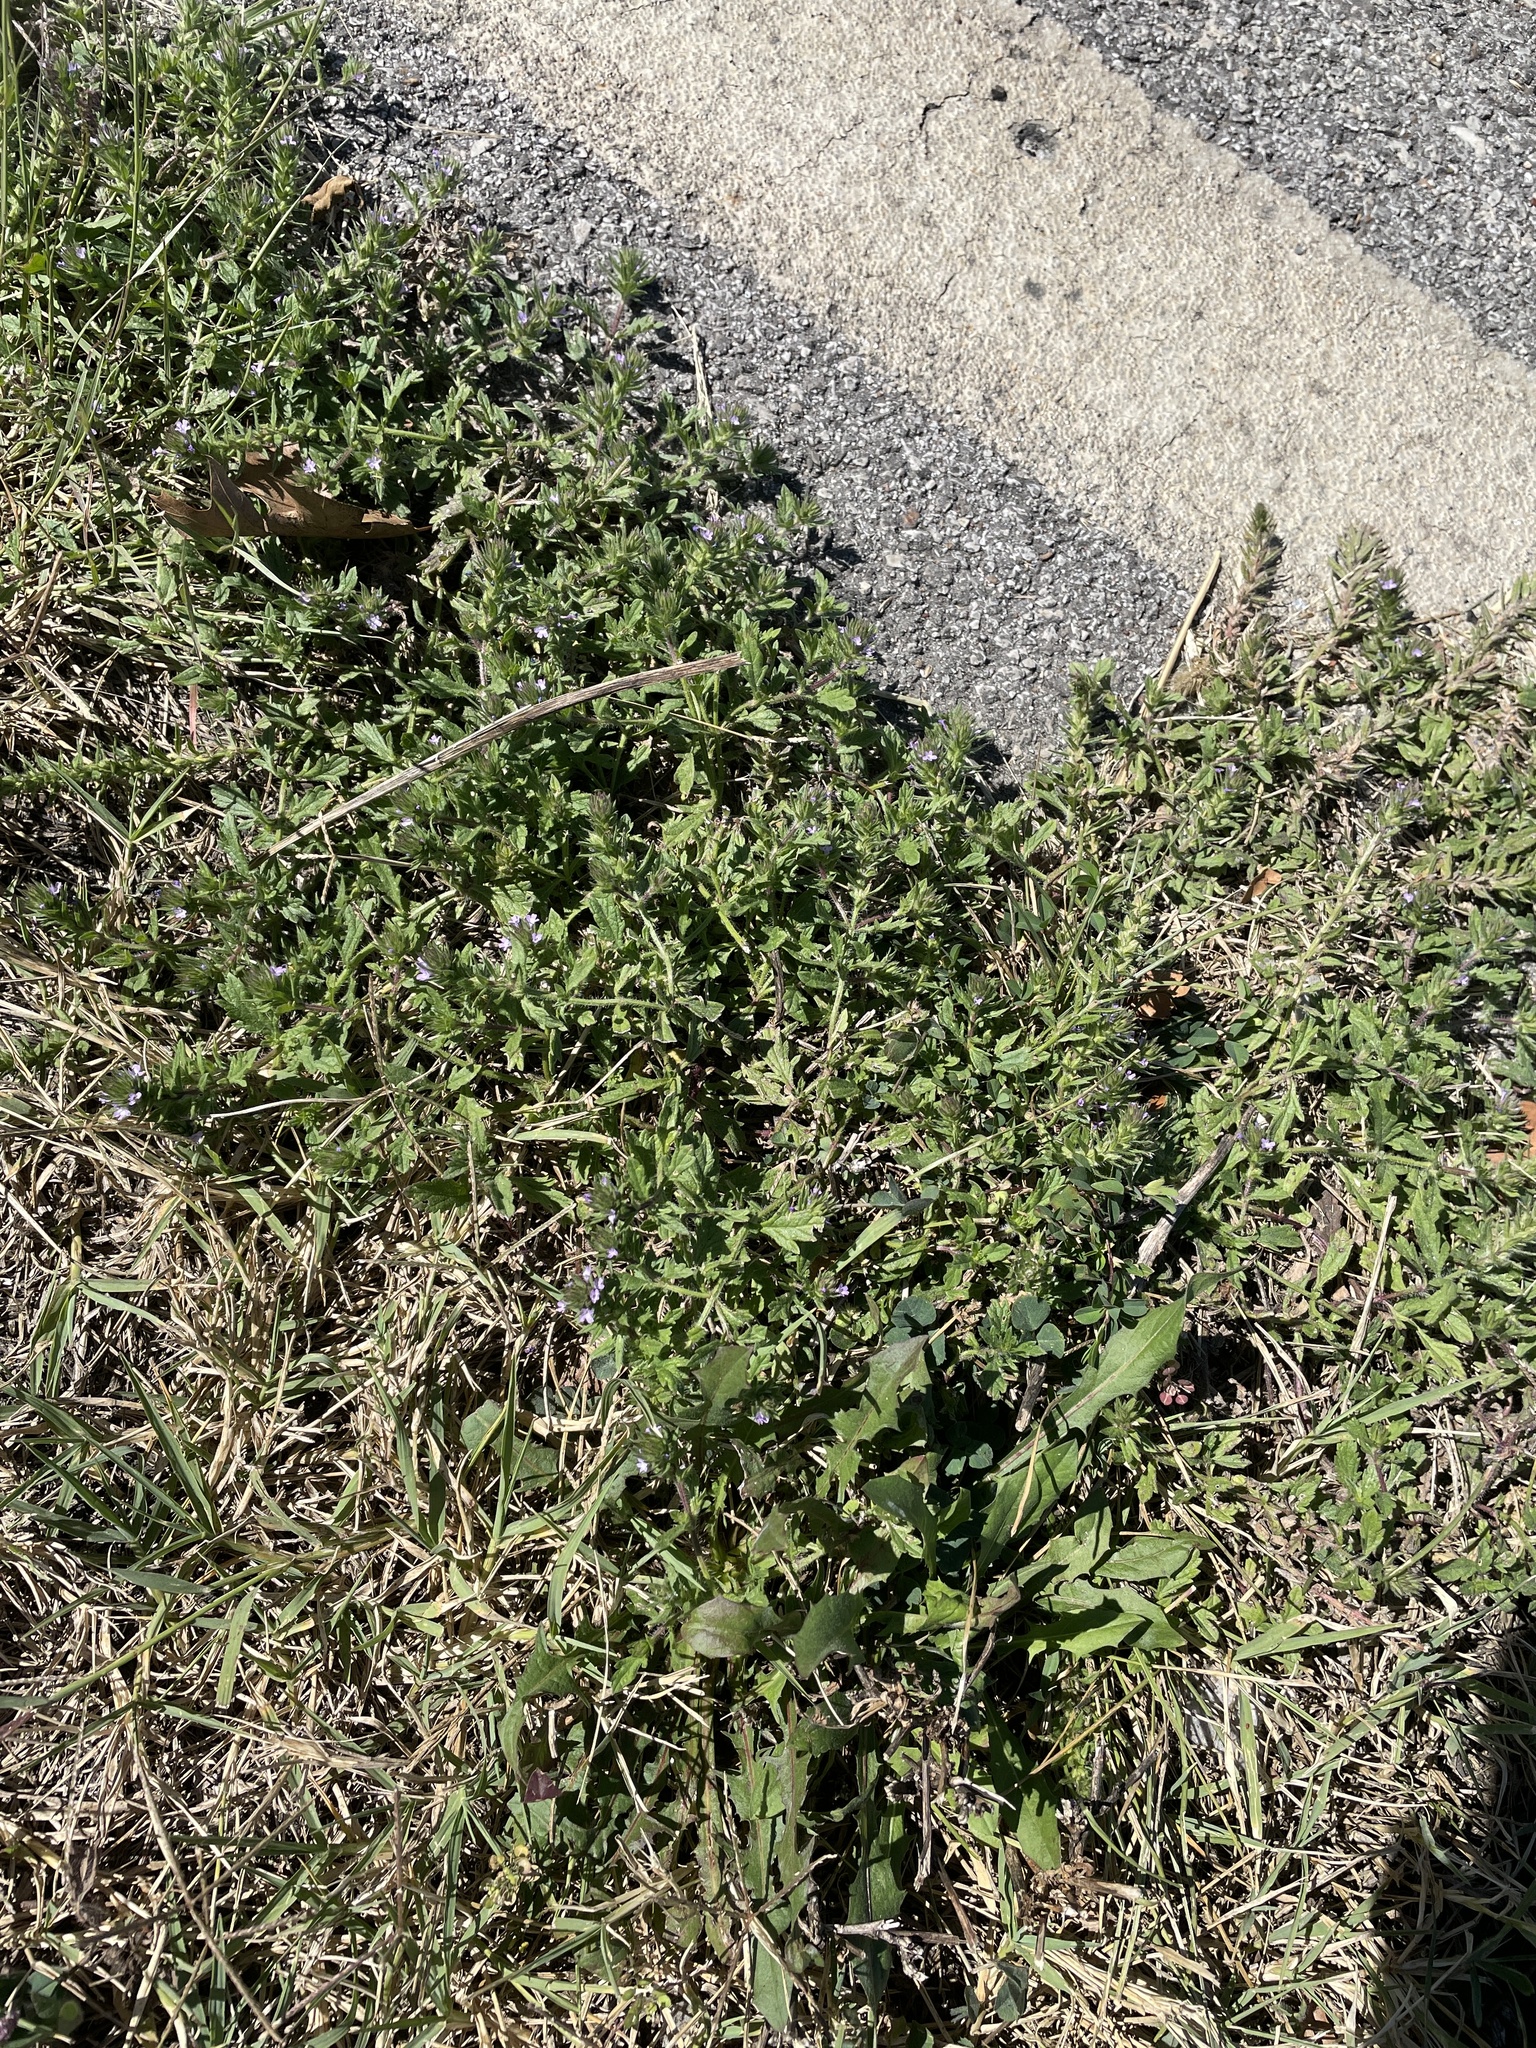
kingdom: Plantae
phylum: Tracheophyta
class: Magnoliopsida
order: Lamiales
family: Verbenaceae
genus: Verbena
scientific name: Verbena bracteata
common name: Bracted vervain
